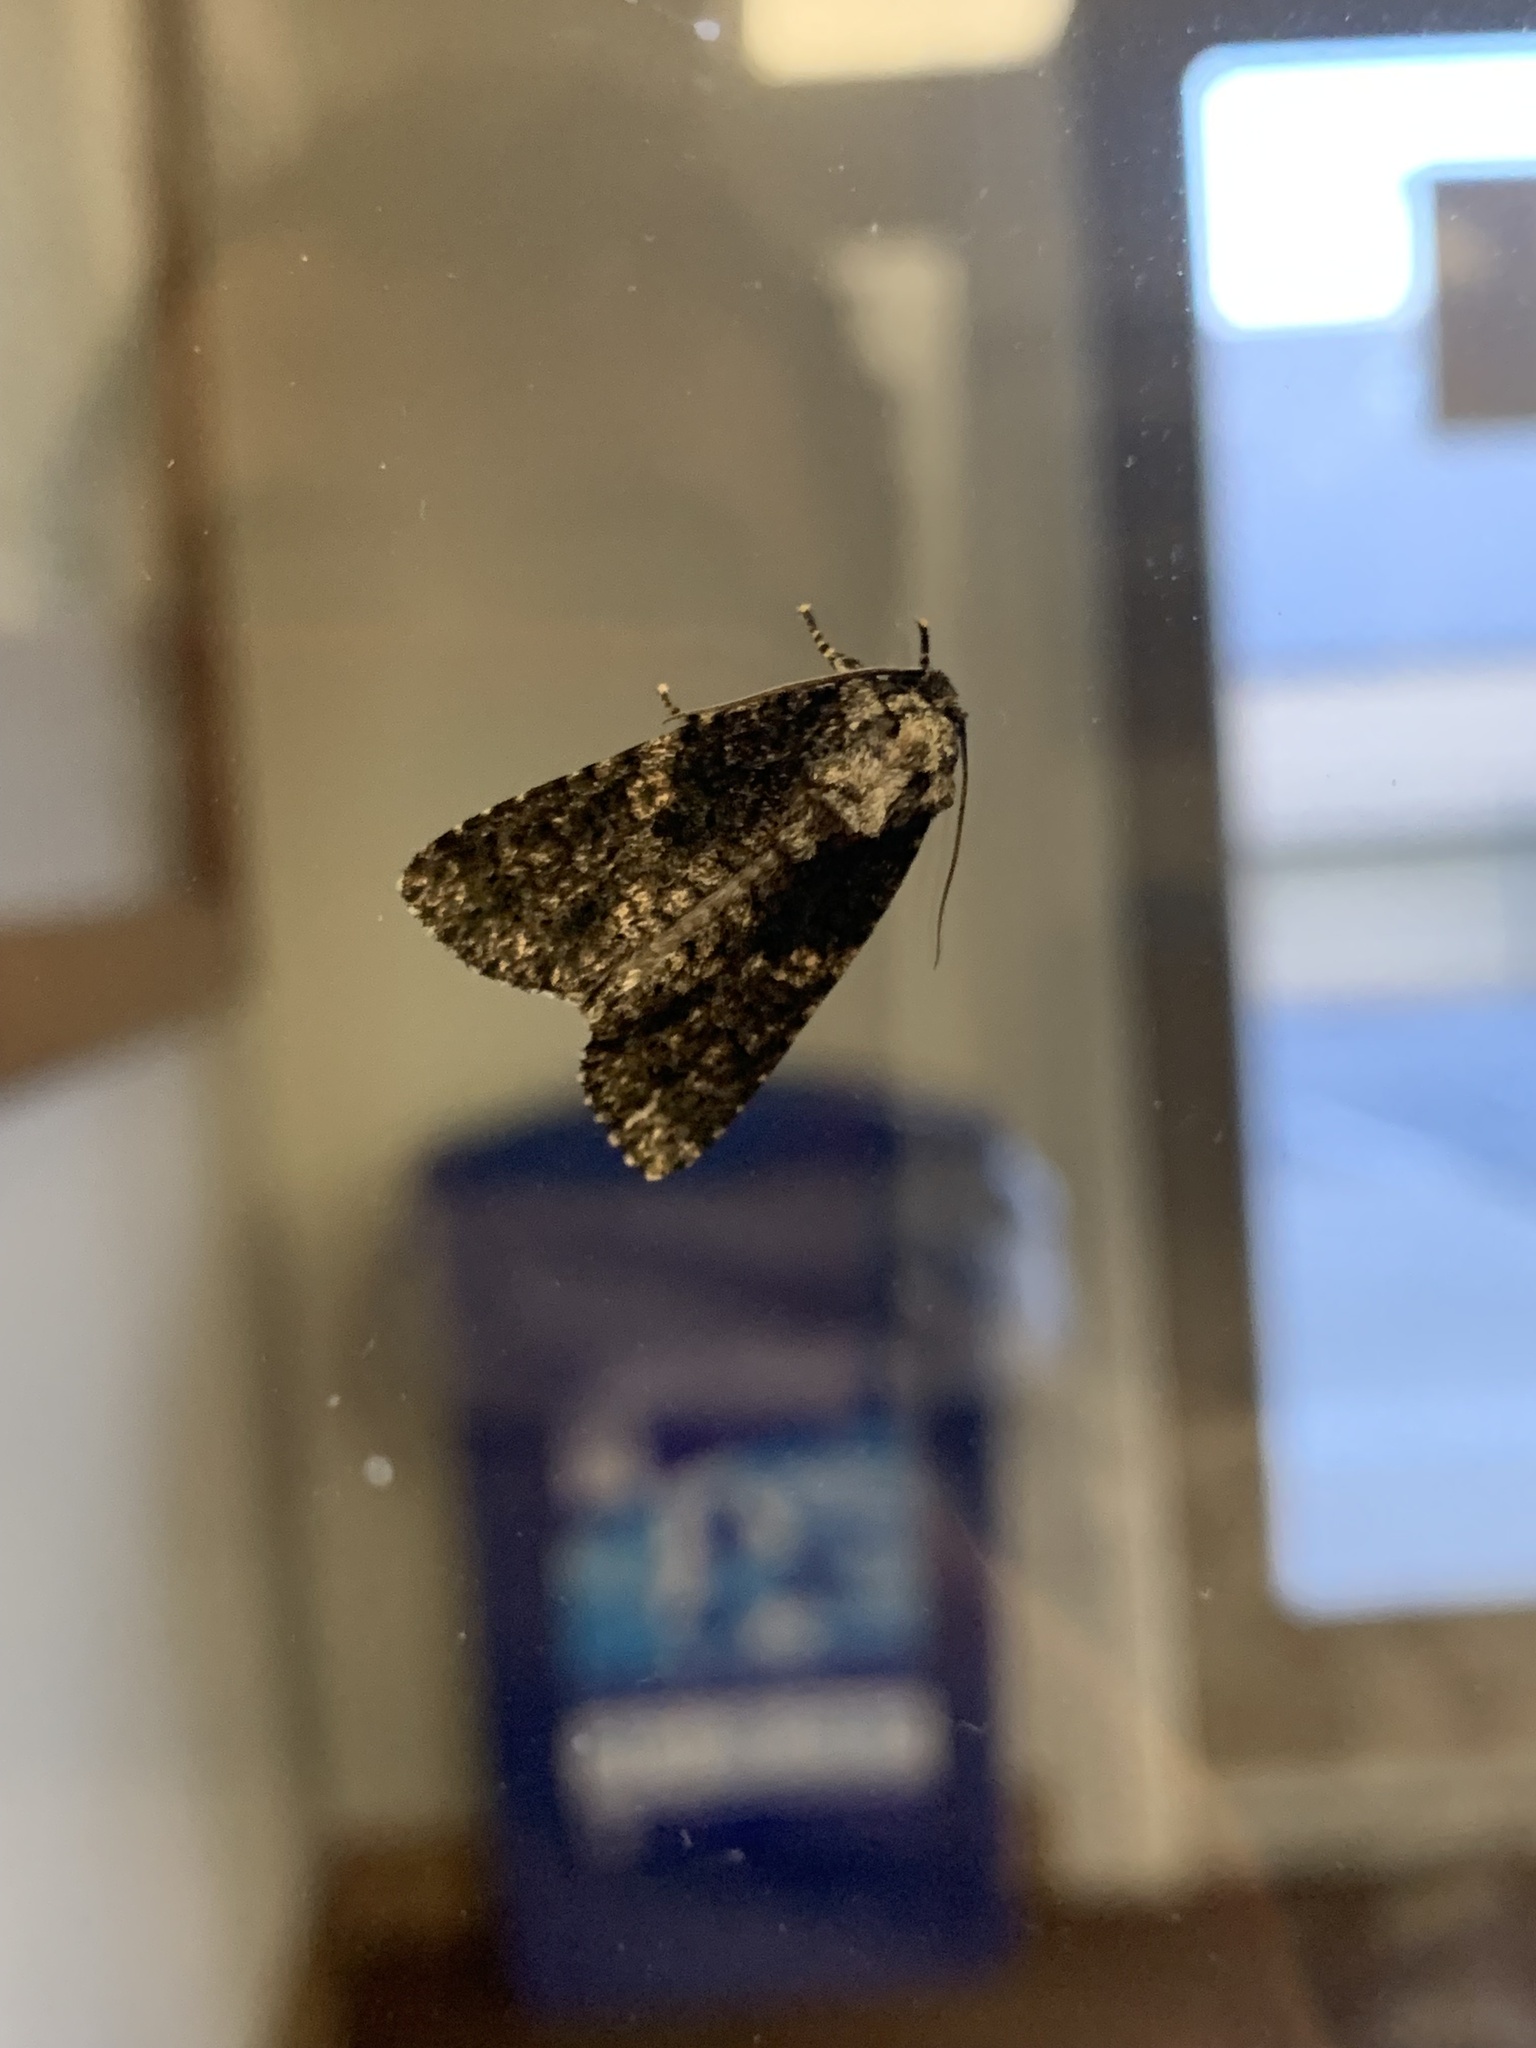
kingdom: Animalia
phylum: Arthropoda
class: Insecta
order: Lepidoptera
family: Noctuidae
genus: Acronicta
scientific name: Acronicta afflicta
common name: Afflicted dagger moth
